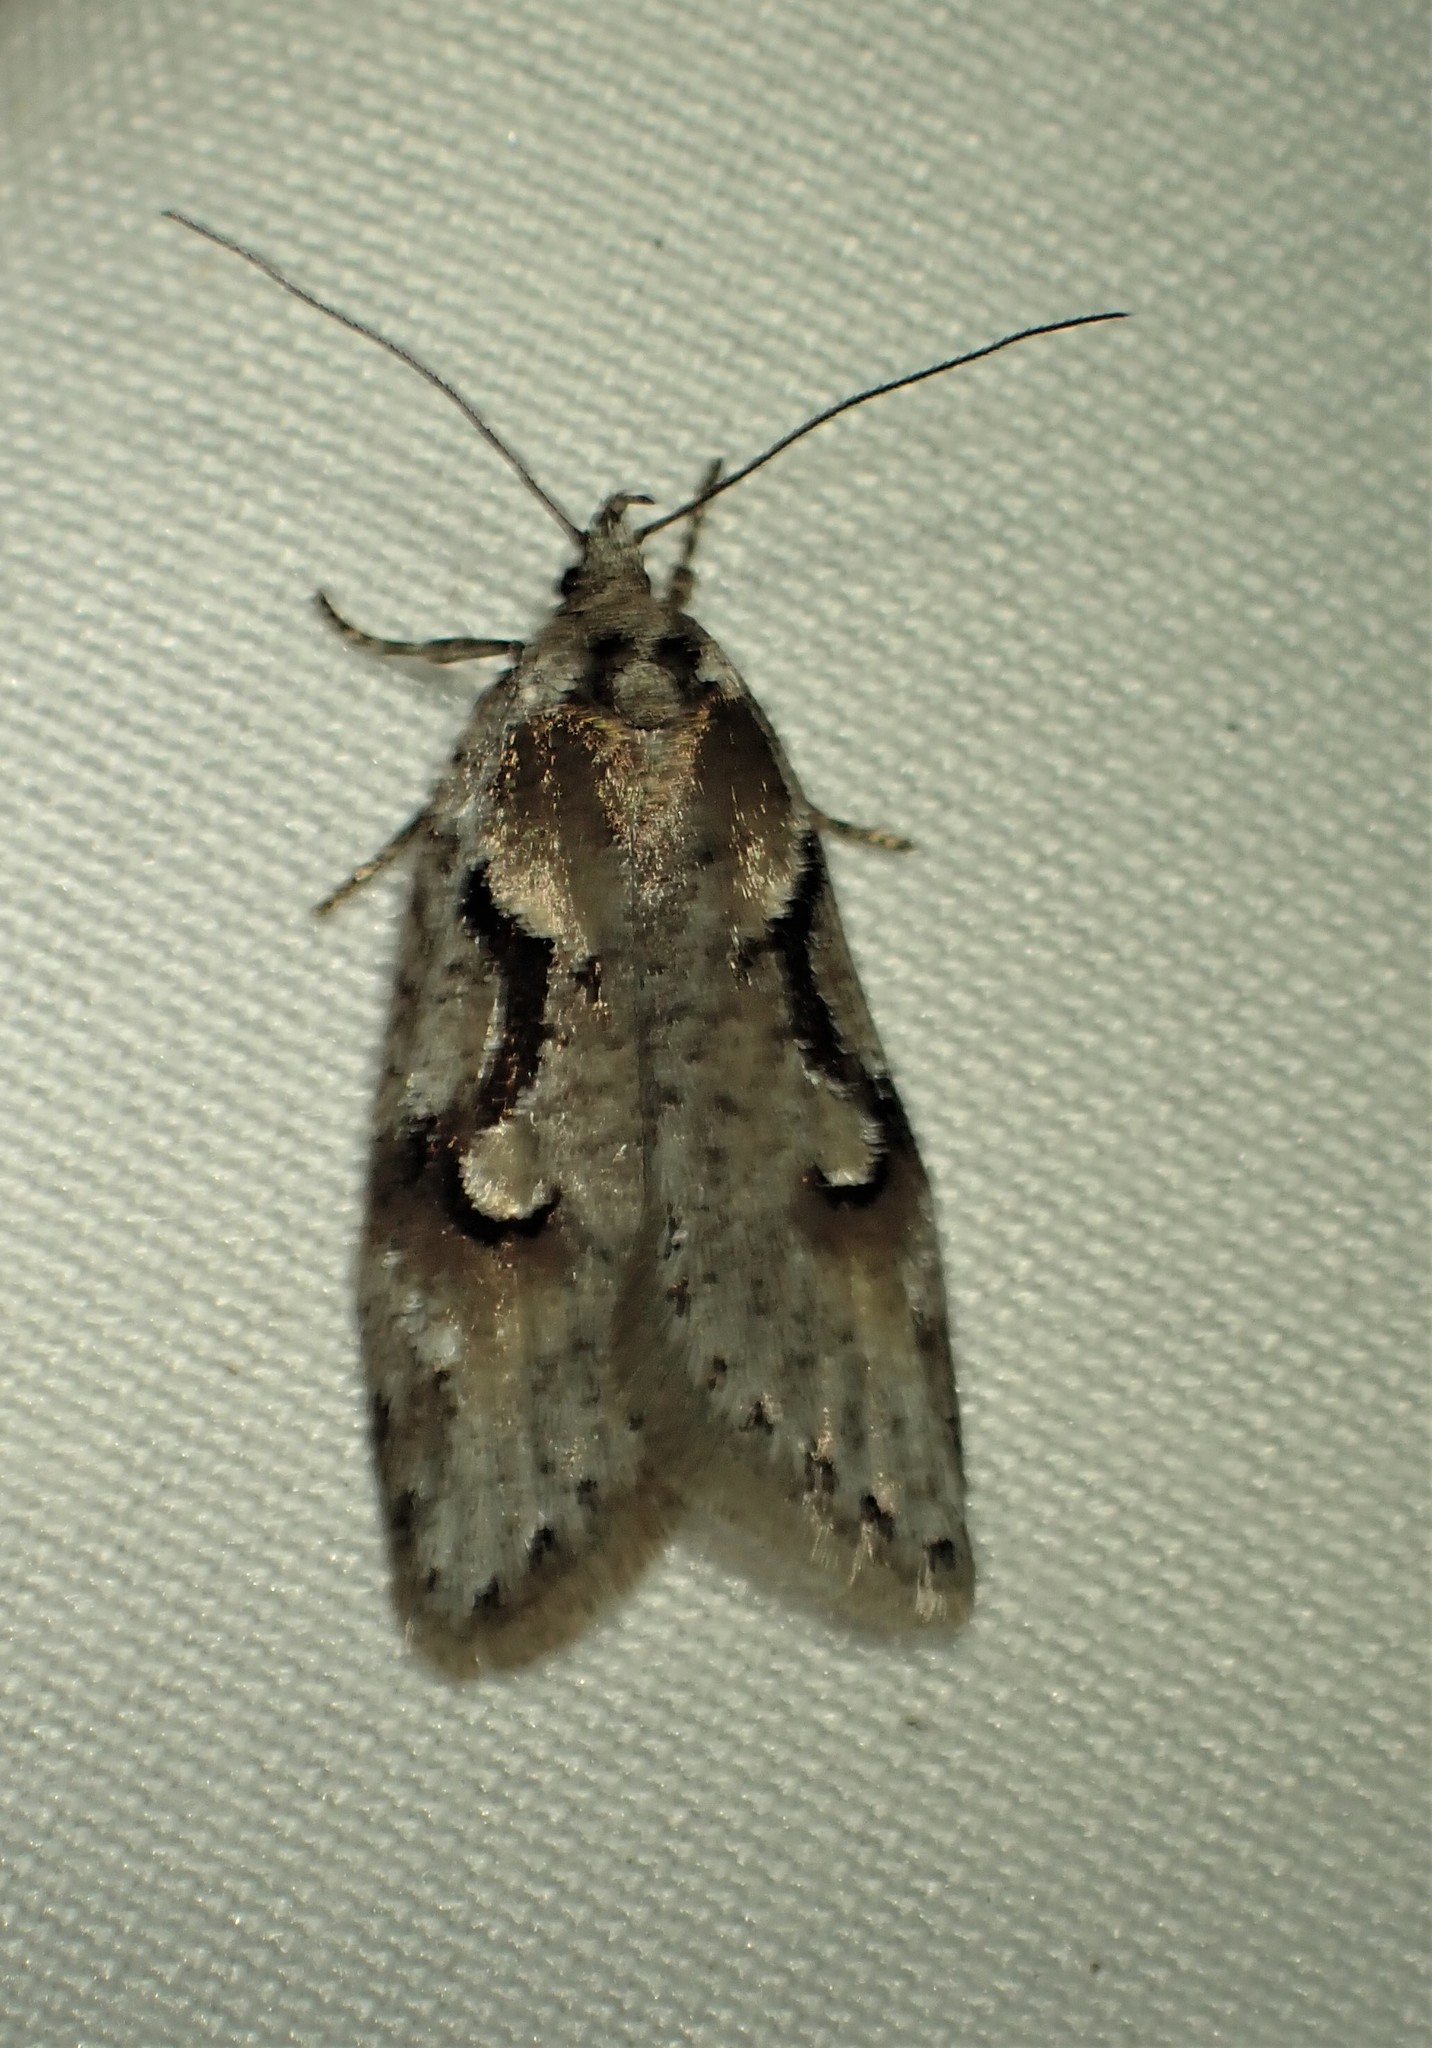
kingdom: Animalia
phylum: Arthropoda
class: Insecta
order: Lepidoptera
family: Depressariidae
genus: Semioscopis
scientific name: Semioscopis merriccella
